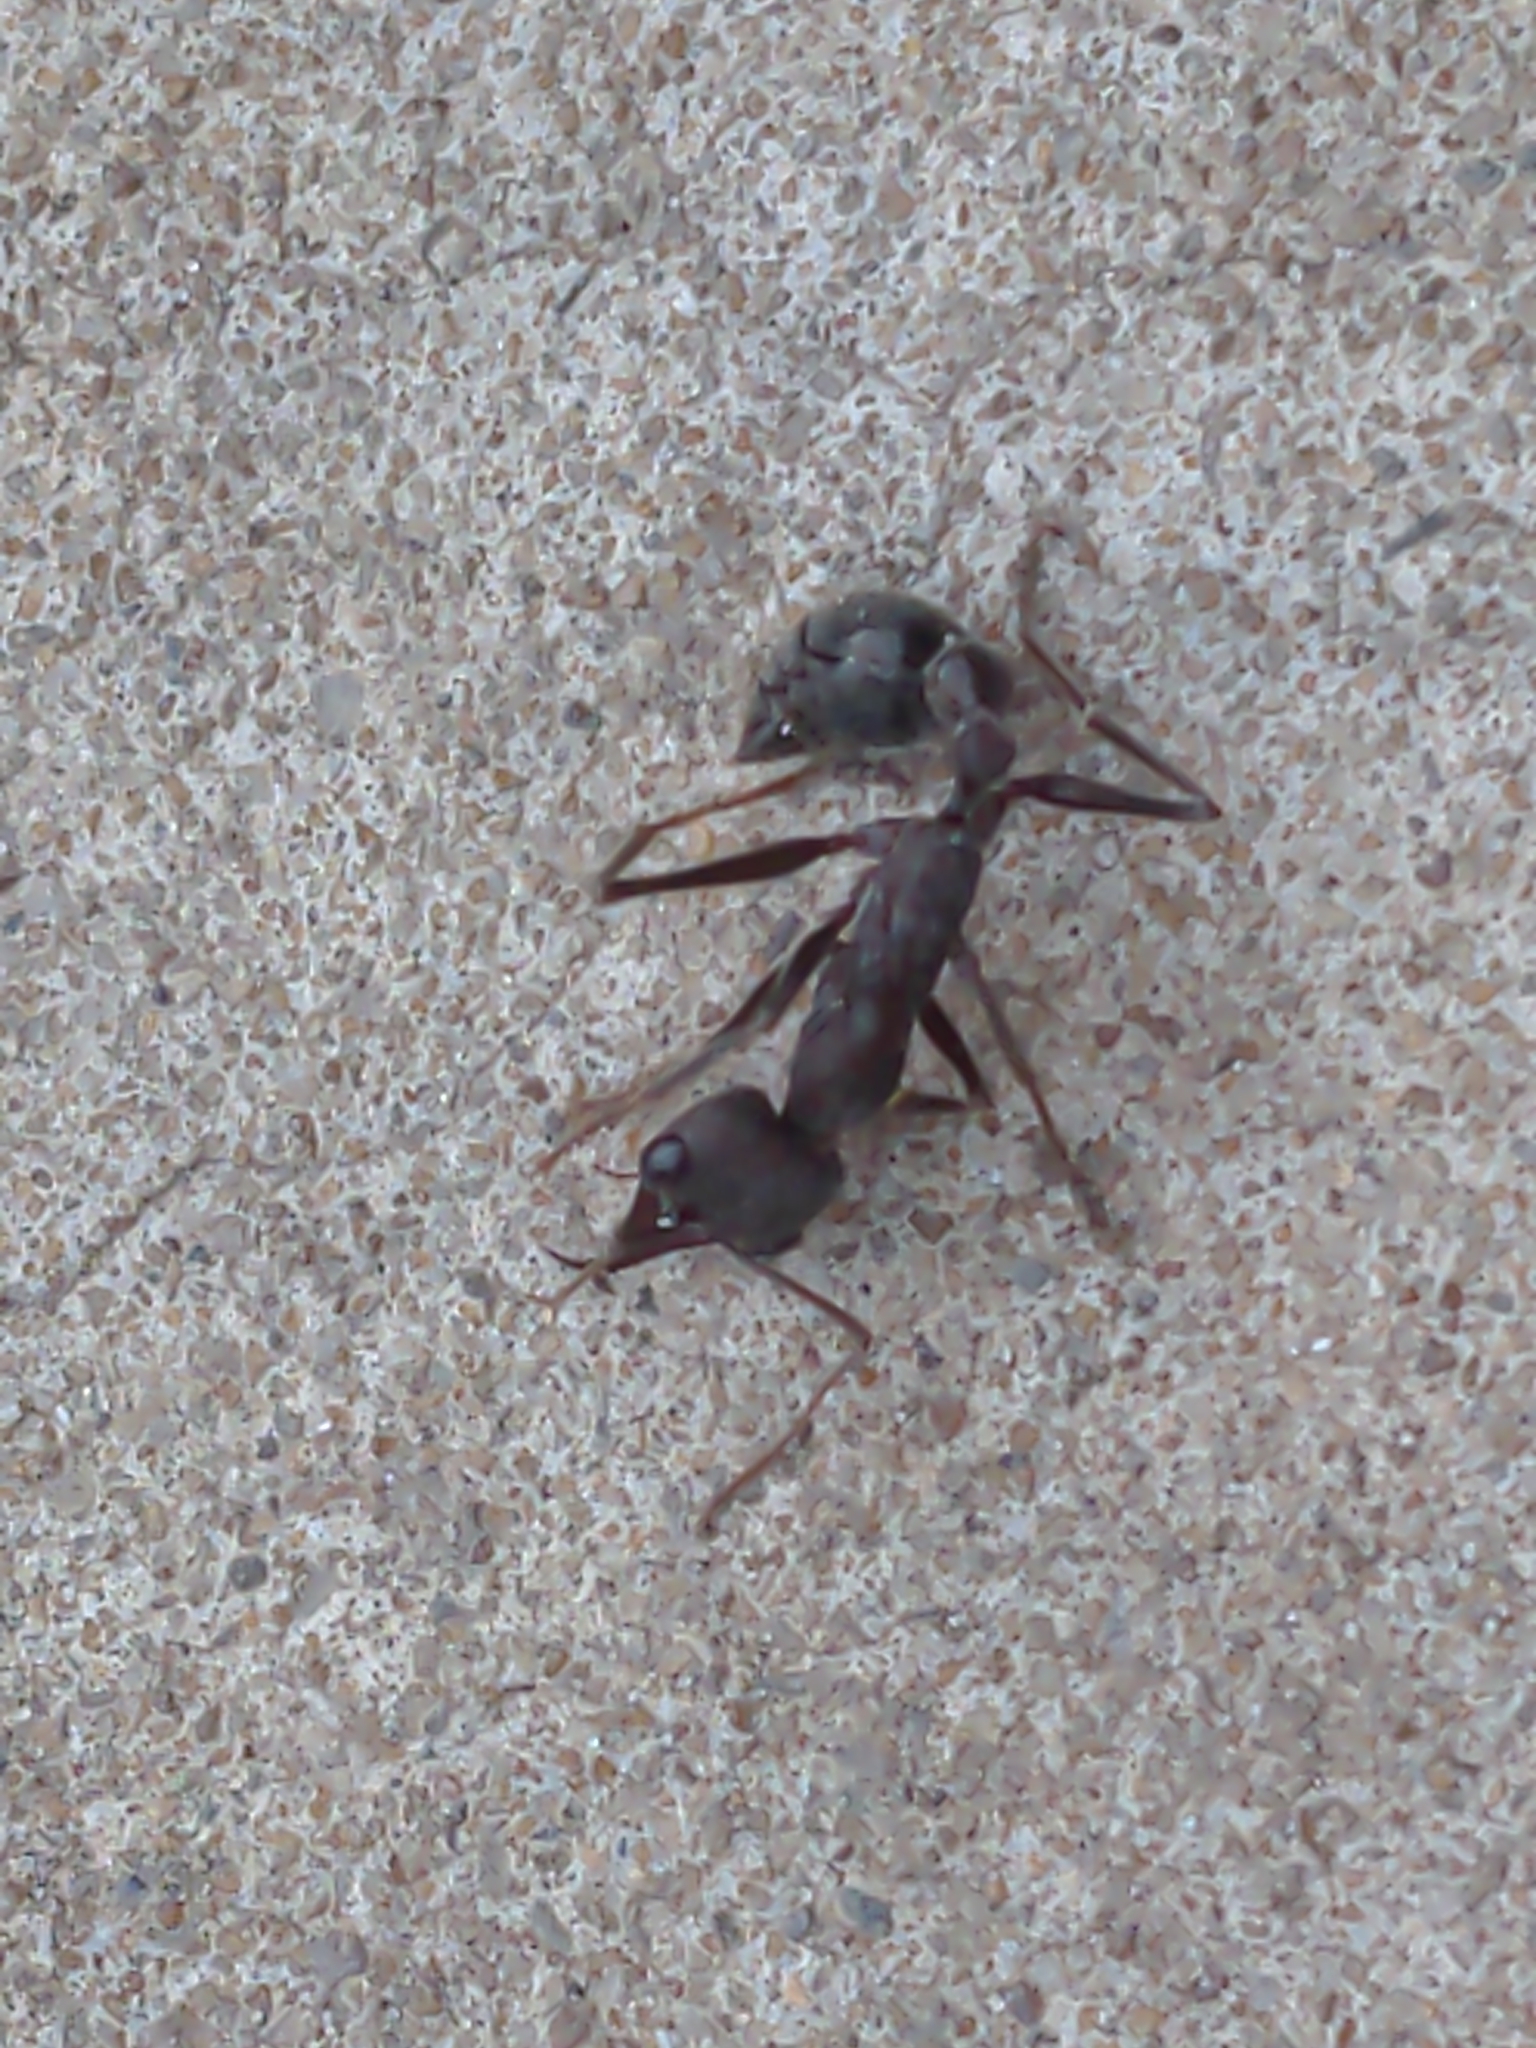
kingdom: Animalia
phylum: Arthropoda
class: Insecta
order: Hymenoptera
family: Formicidae
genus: Myrmecia
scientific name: Myrmecia pyriformis
